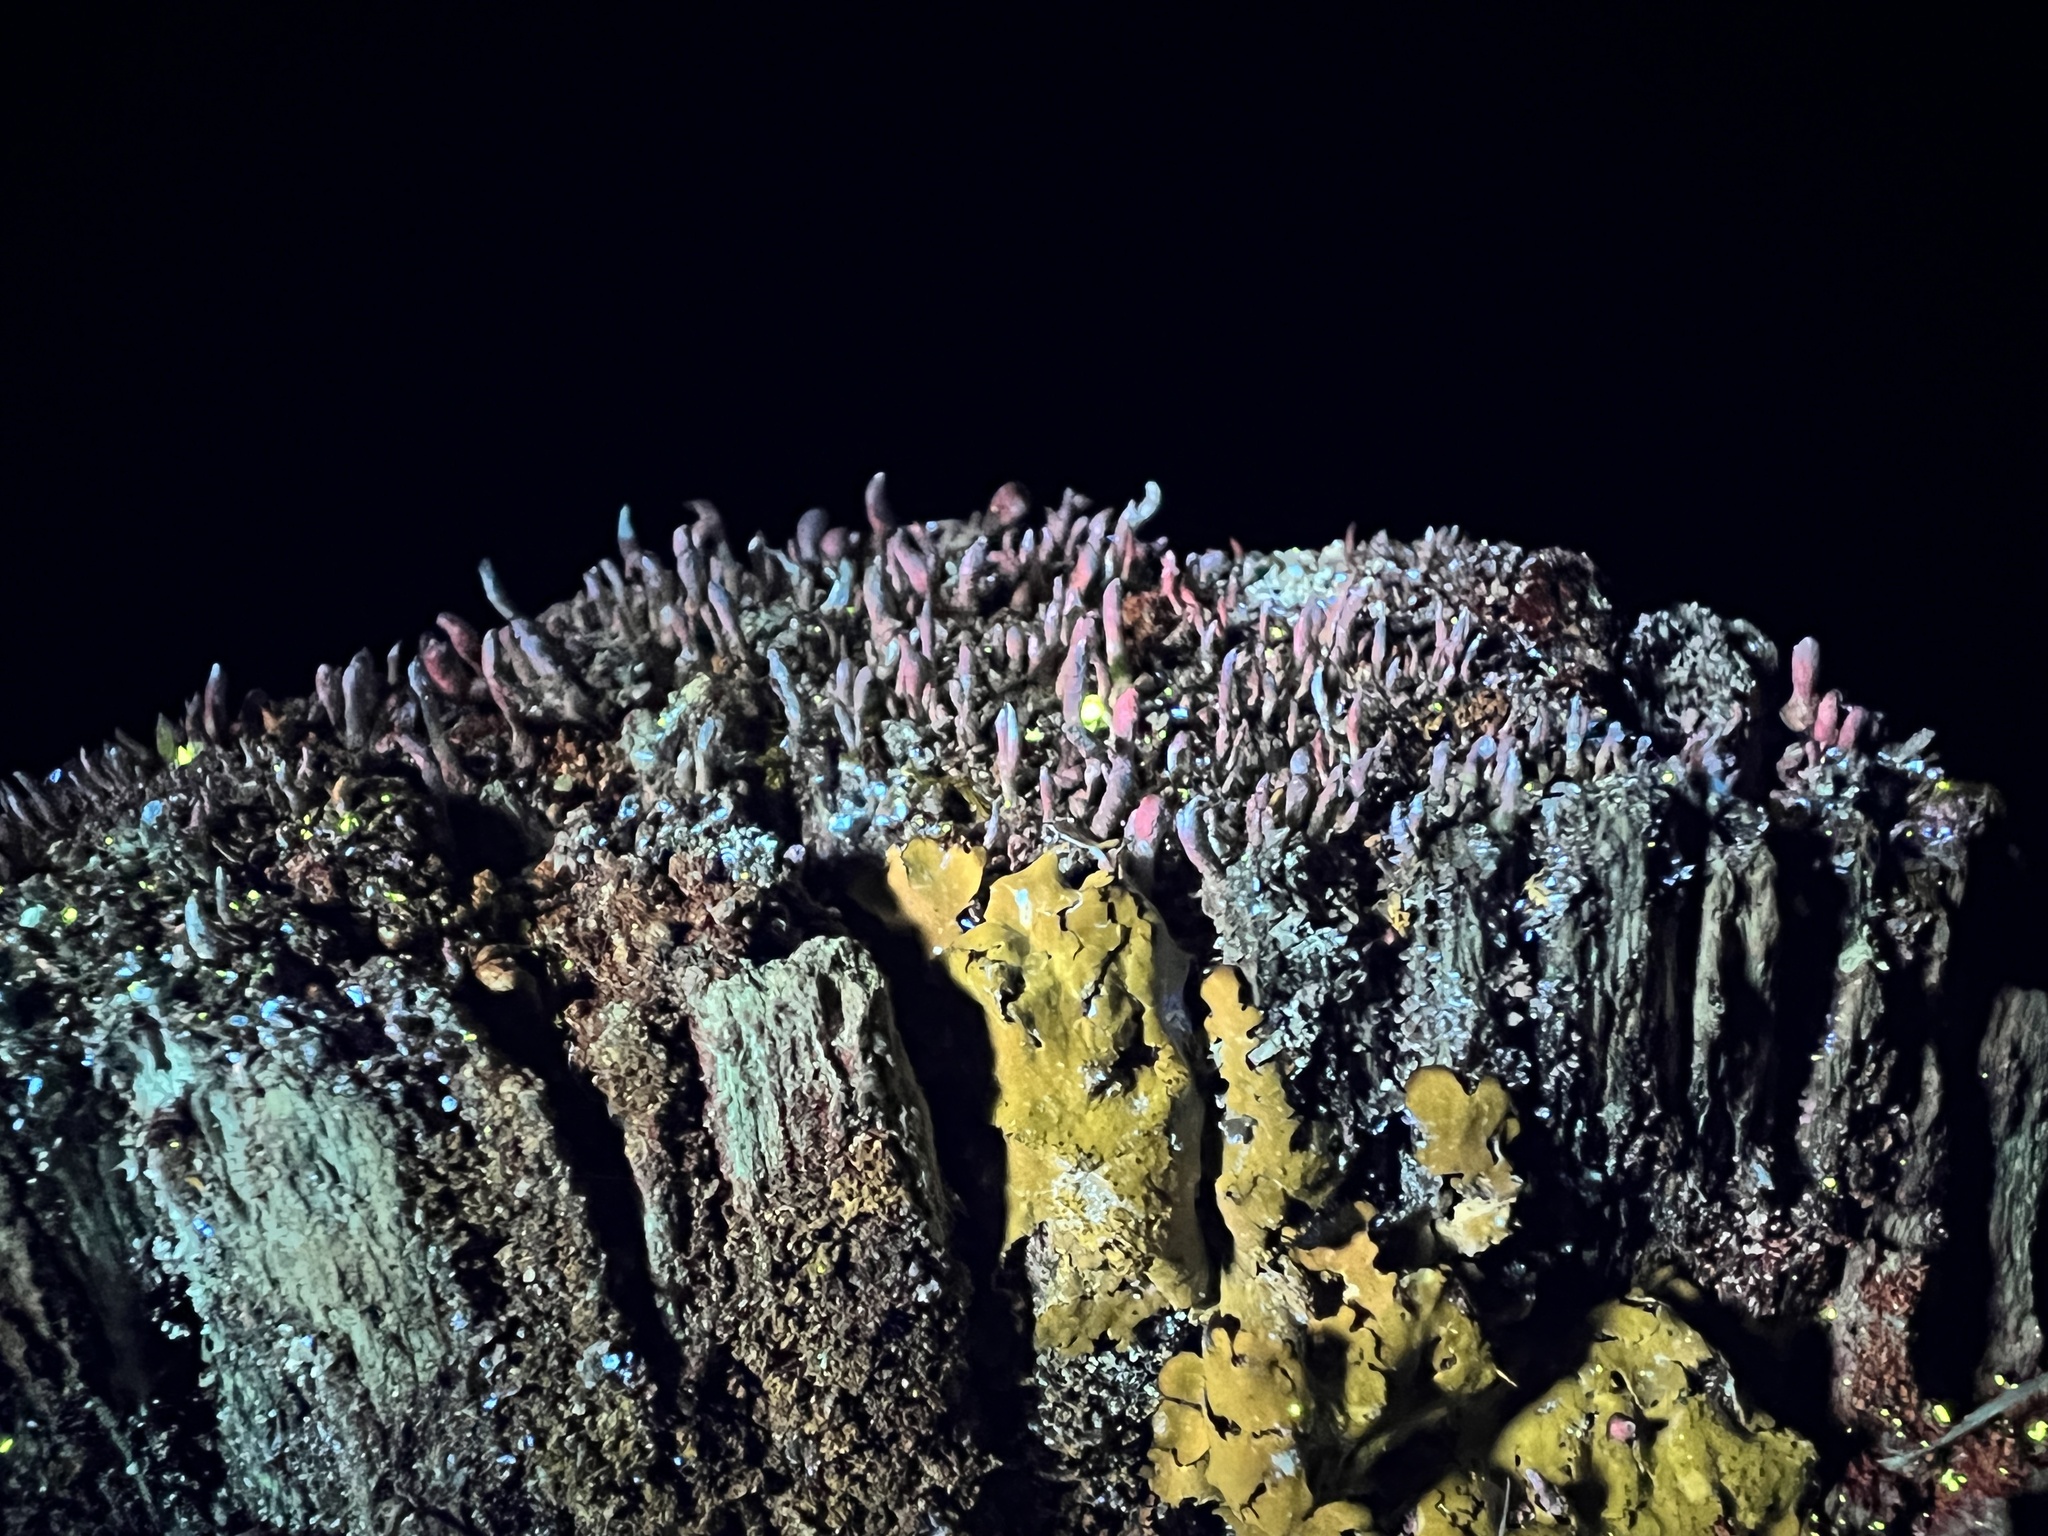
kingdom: Fungi
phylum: Ascomycota
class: Lecanoromycetes
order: Lecanorales
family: Cladoniaceae
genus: Cladonia
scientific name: Cladonia coniocraea
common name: Common powderhorn
